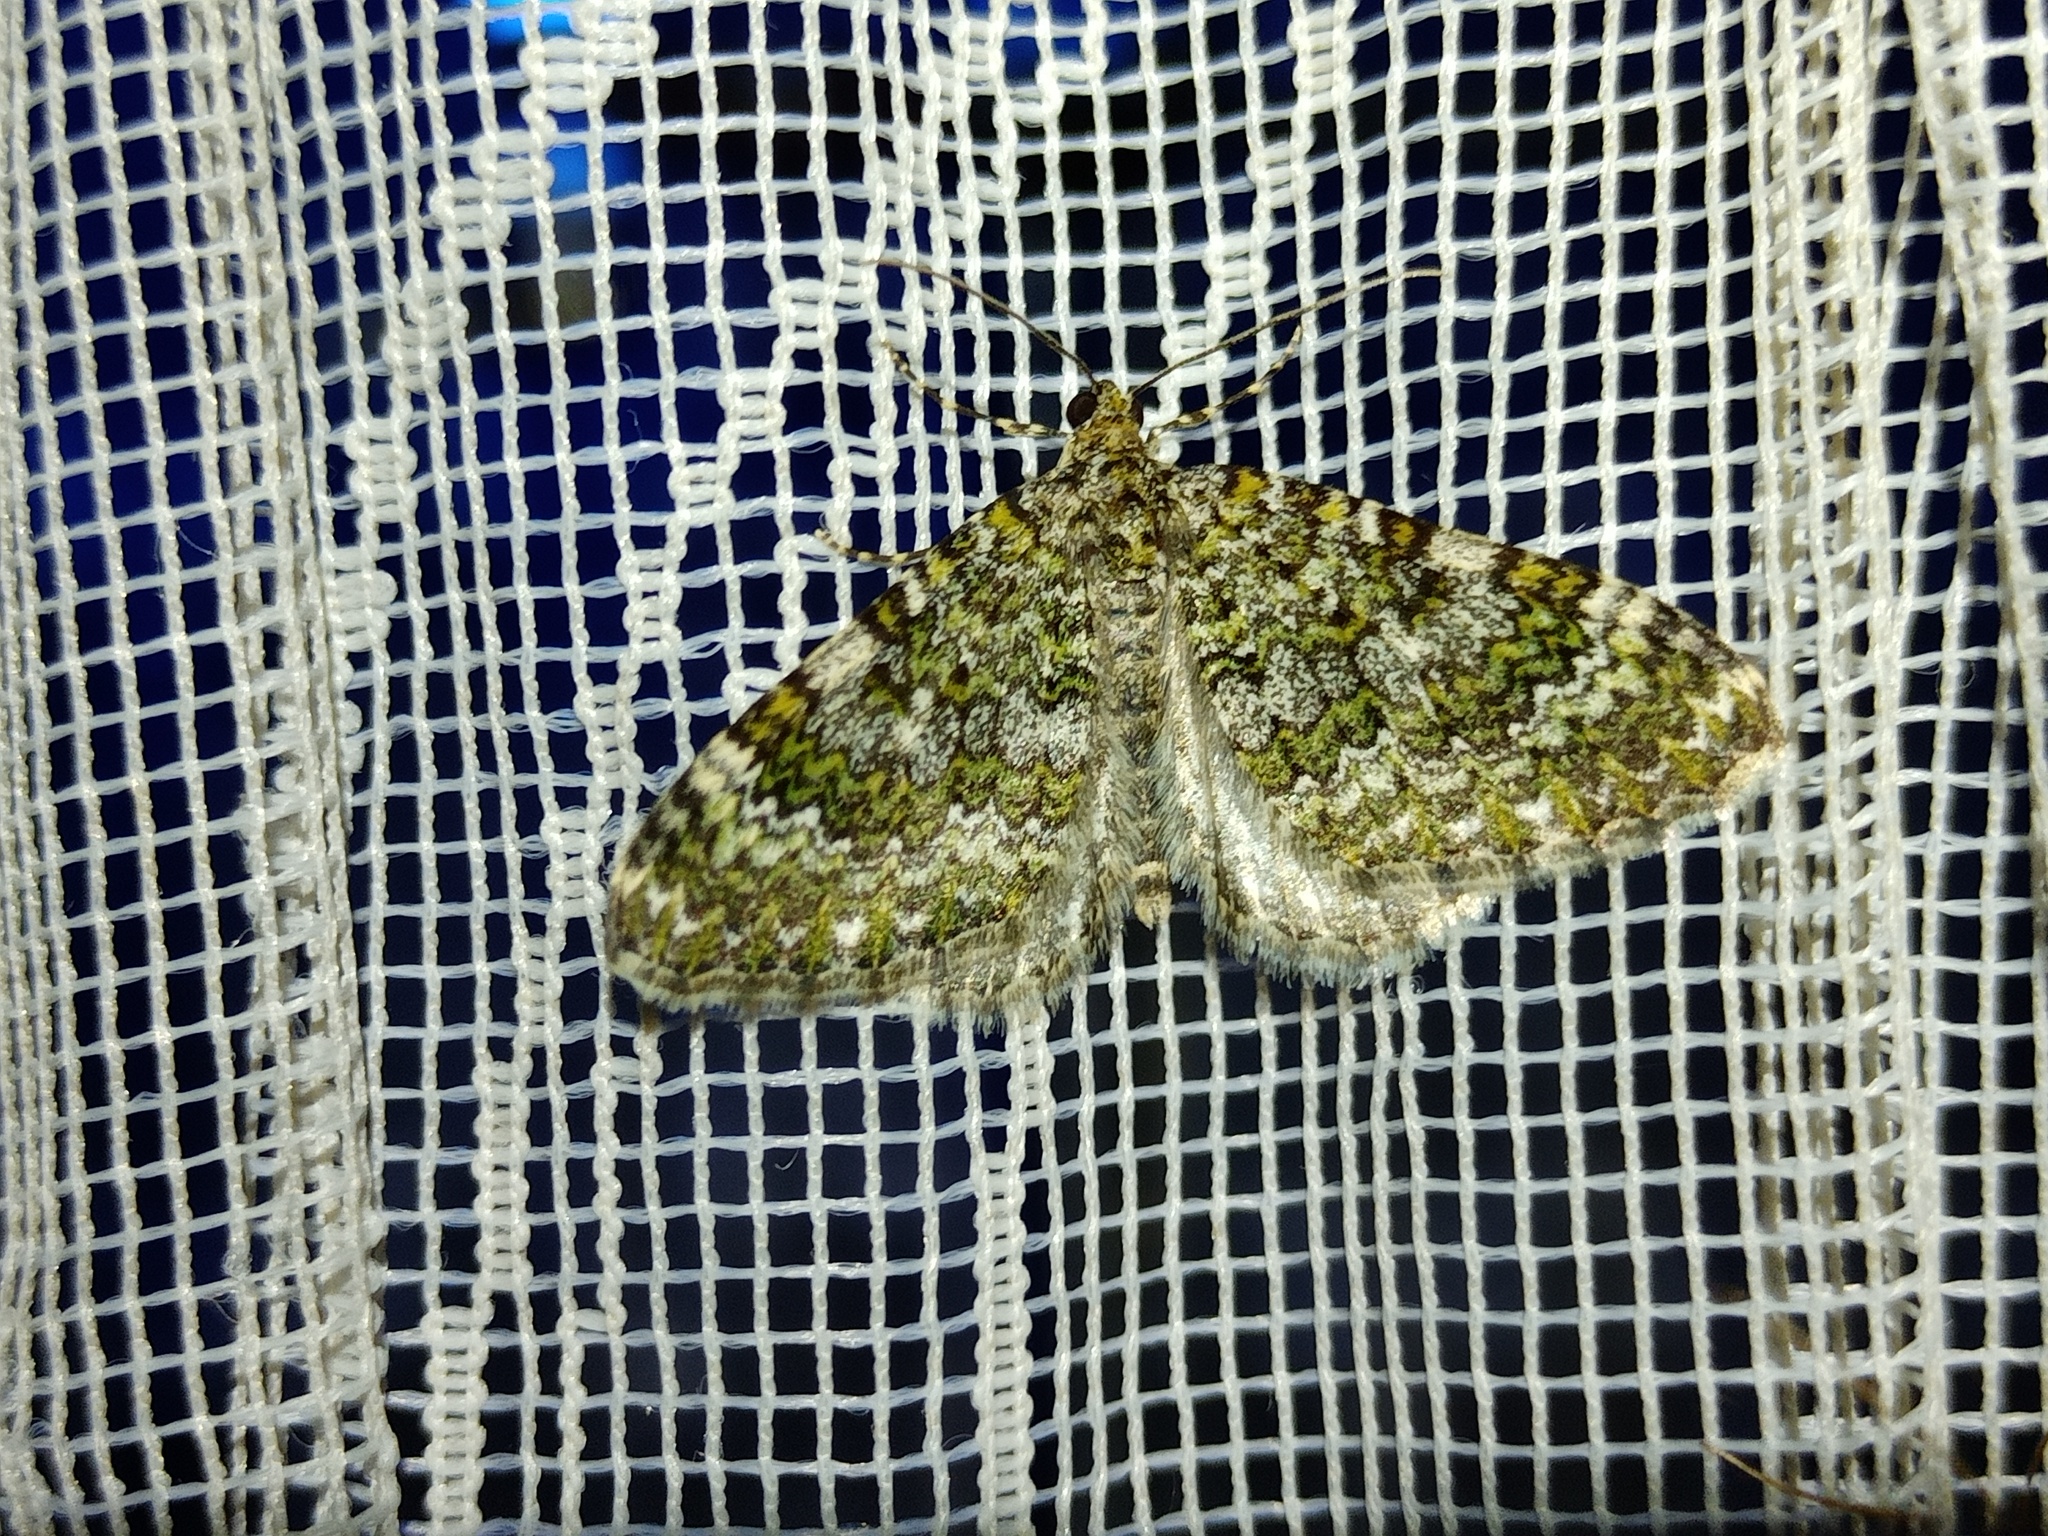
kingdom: Animalia
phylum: Arthropoda
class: Insecta
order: Lepidoptera
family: Geometridae
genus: Euphyia
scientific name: Euphyia frustata
